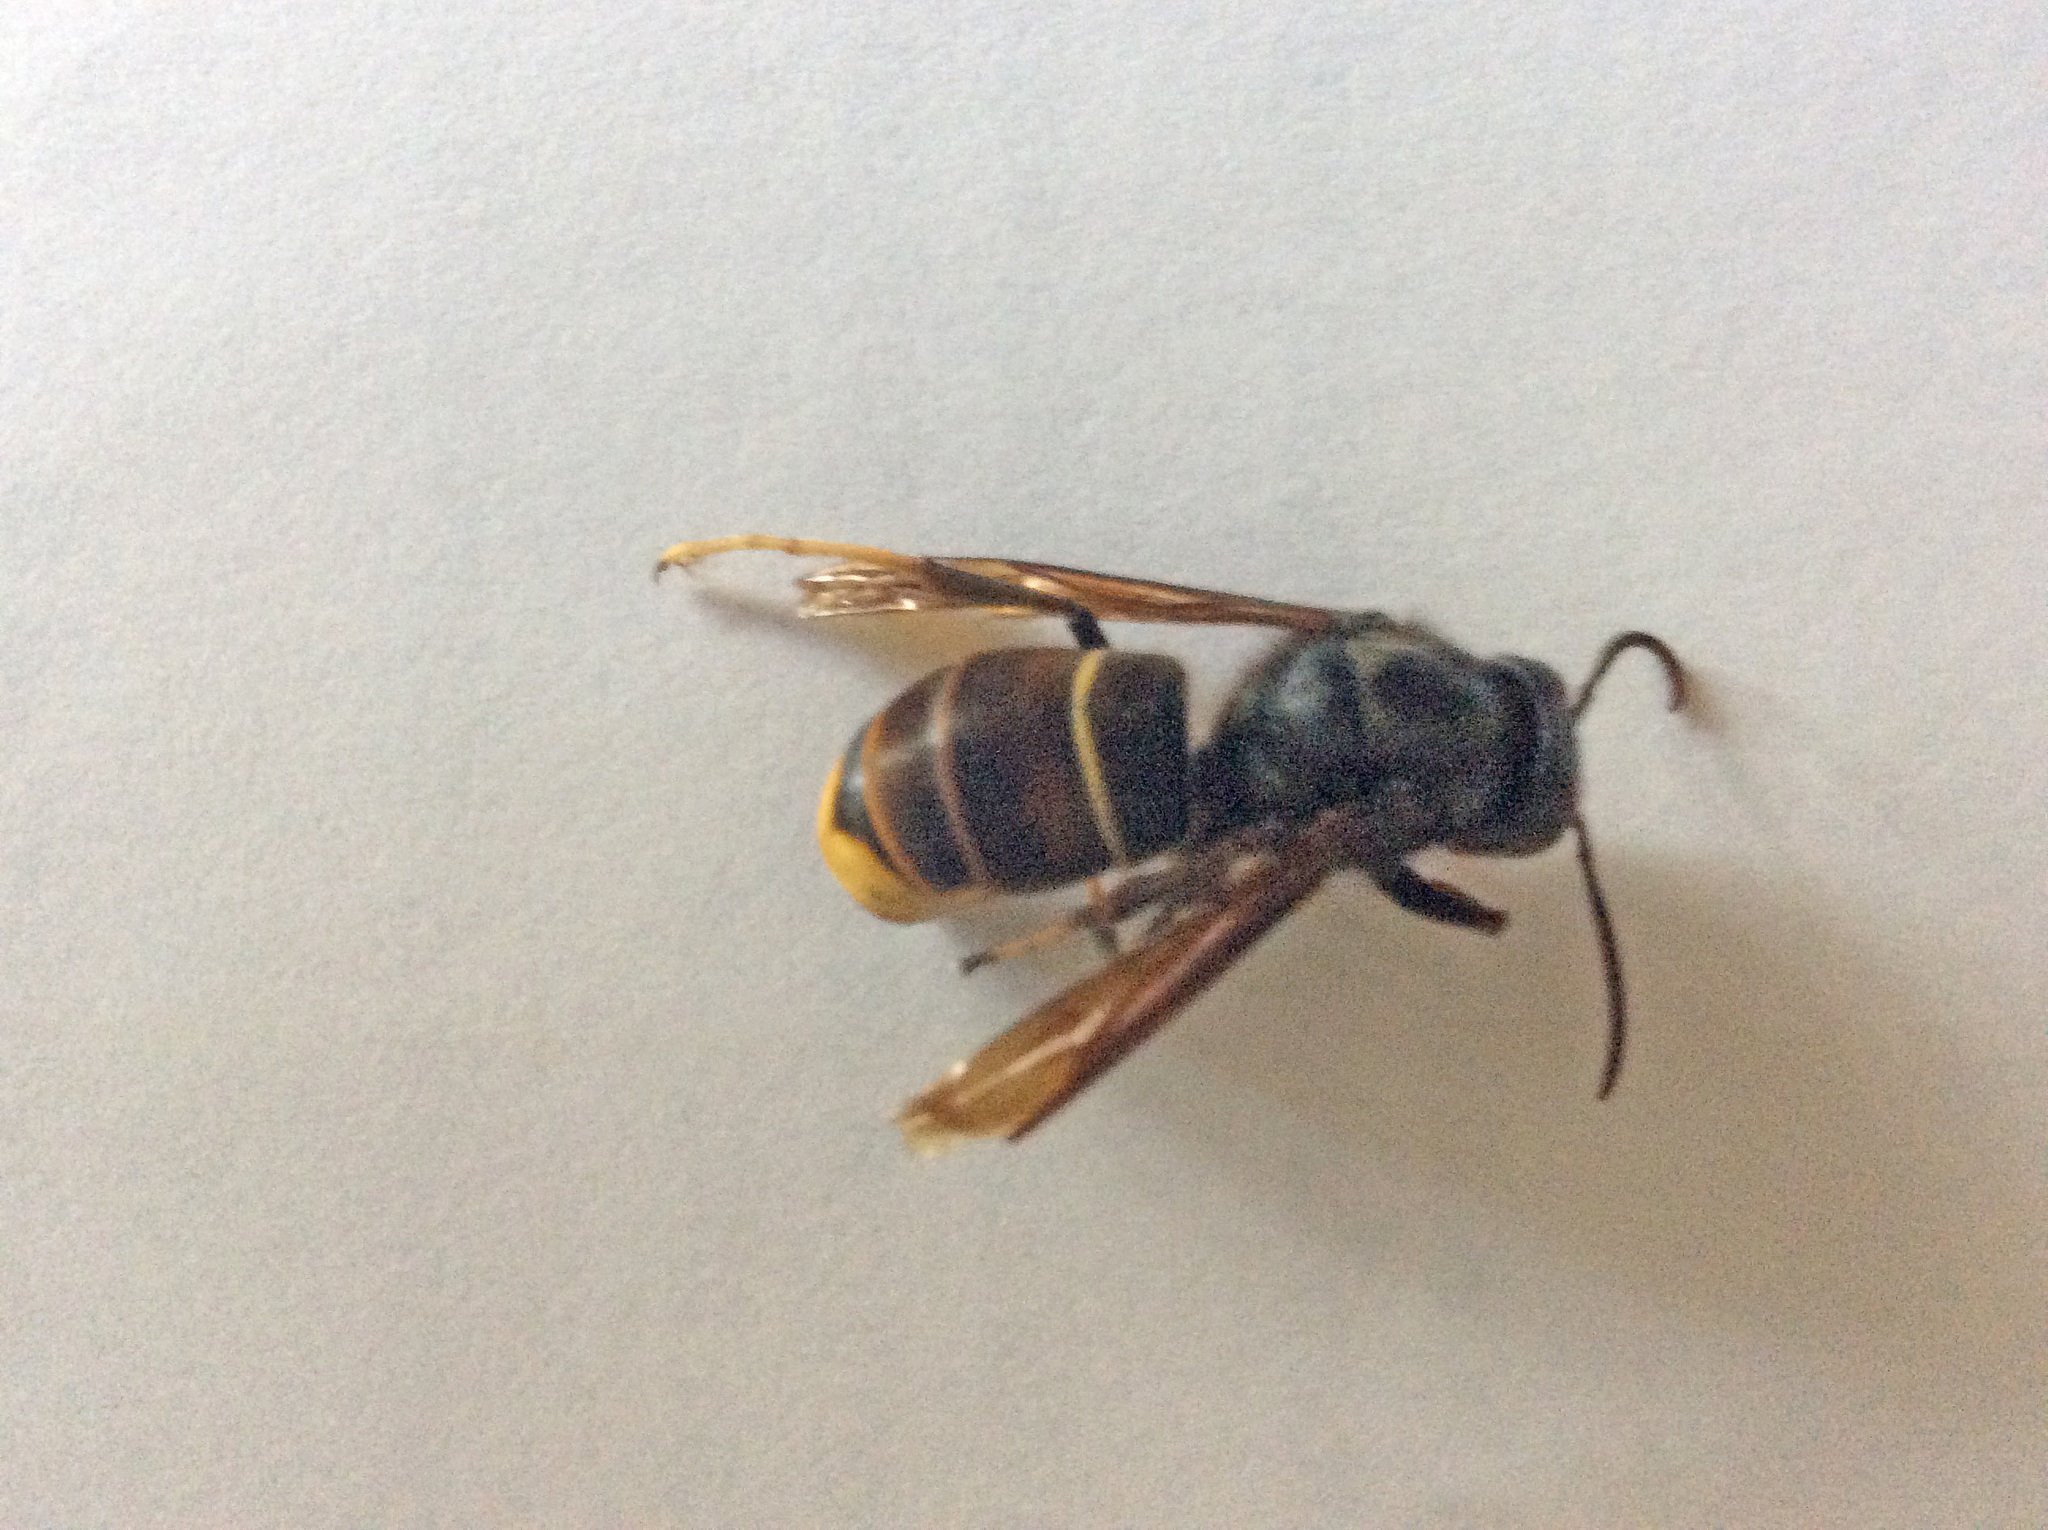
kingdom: Animalia
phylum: Arthropoda
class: Insecta
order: Hymenoptera
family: Vespidae
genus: Vespa
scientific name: Vespa velutina
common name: Asian hornet
